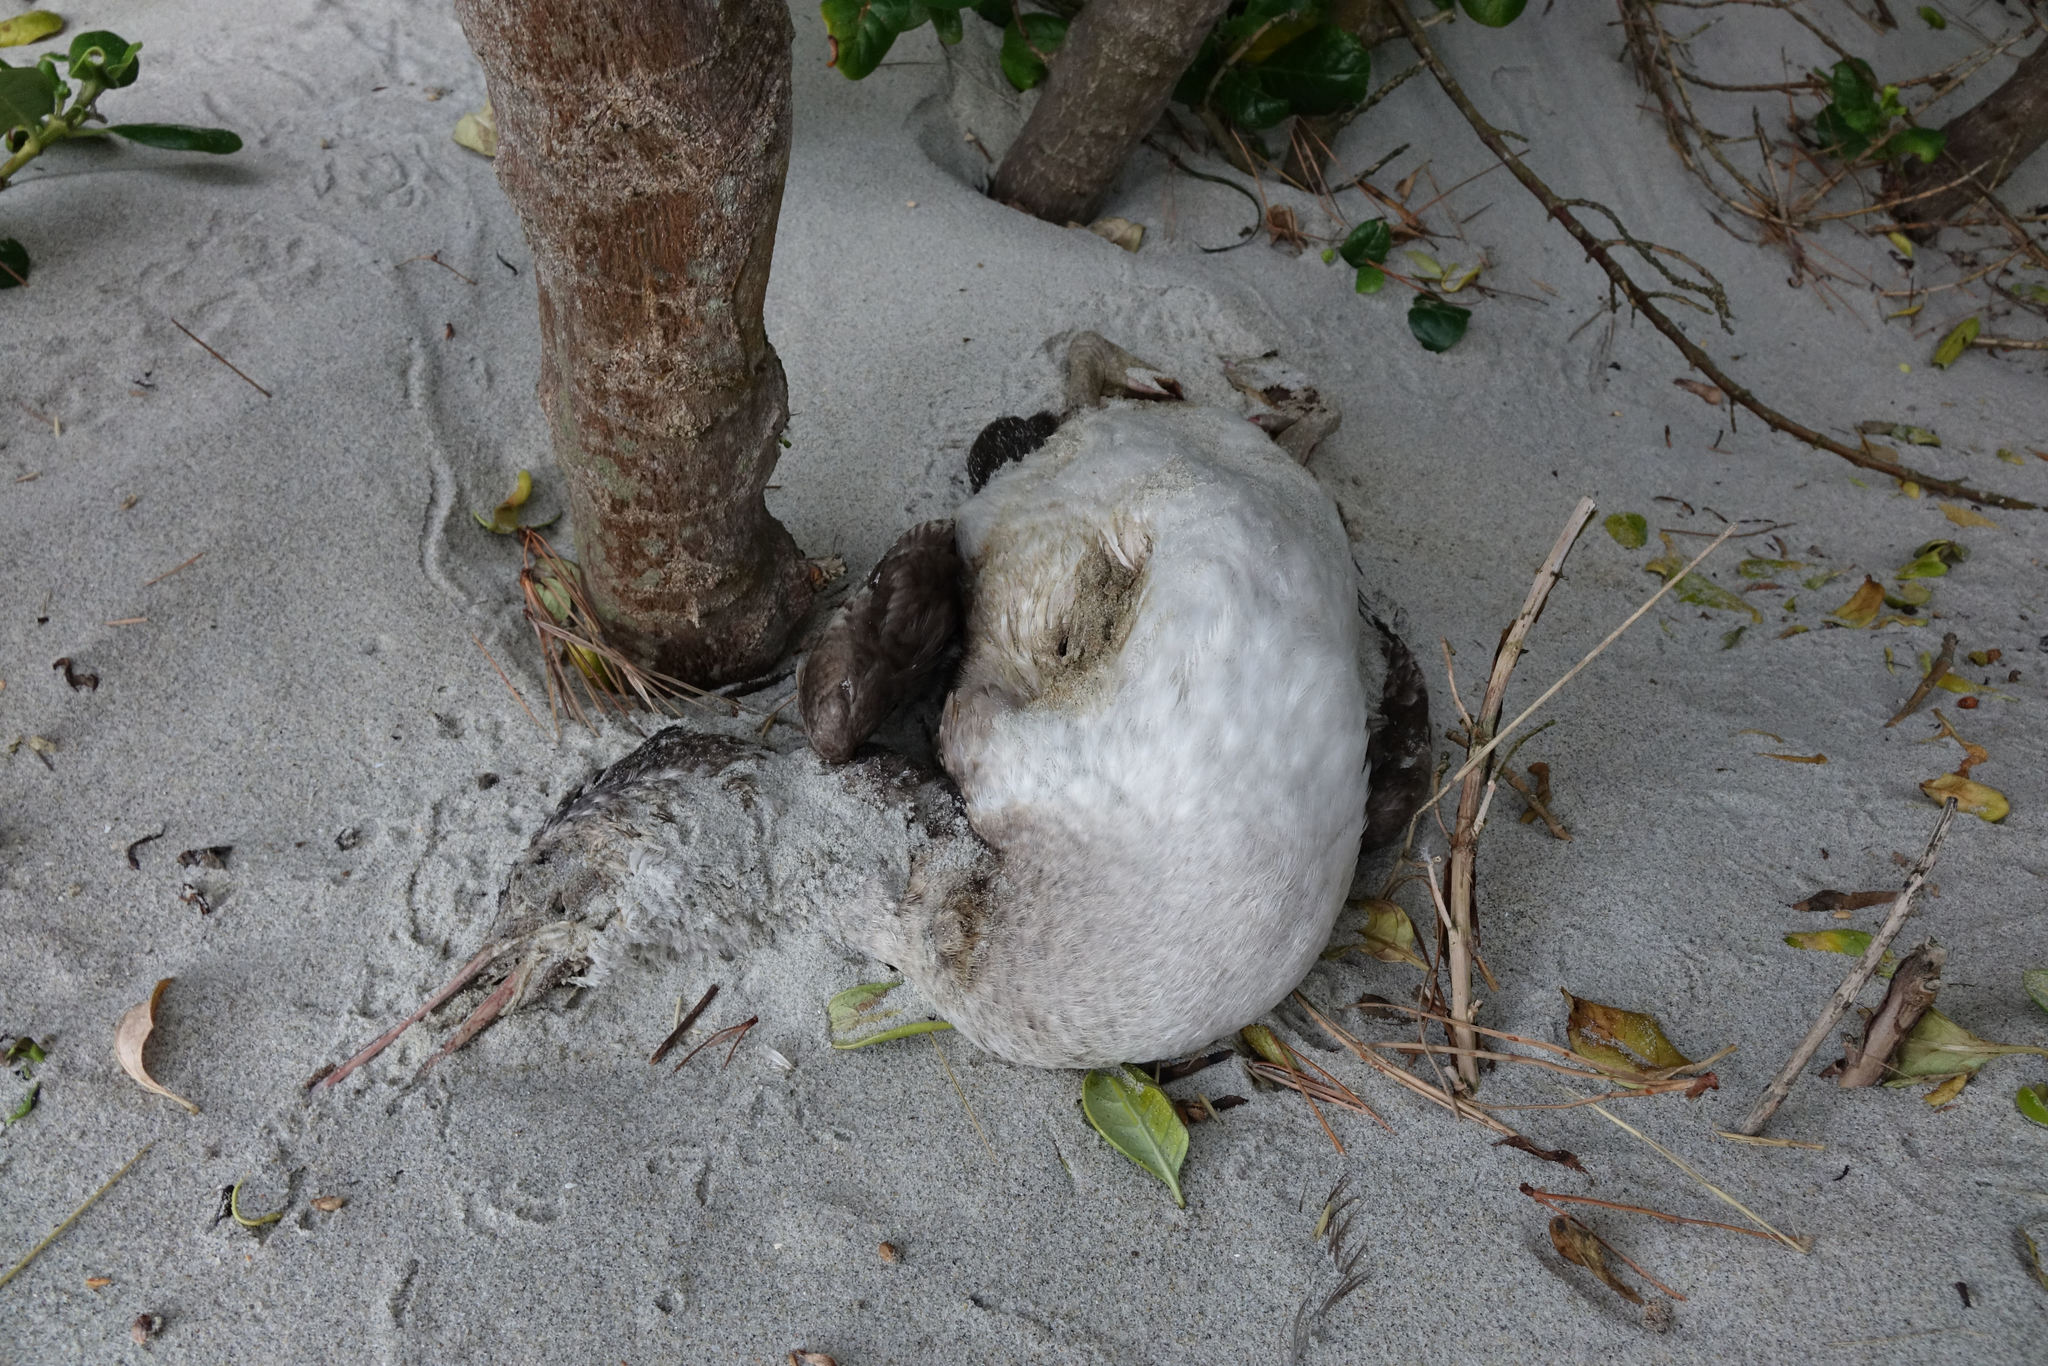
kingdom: Animalia
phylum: Chordata
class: Aves
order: Suliformes
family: Phalacrocoracidae
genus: Phalacrocorax
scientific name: Phalacrocorax punctatus
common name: Spotted shag
